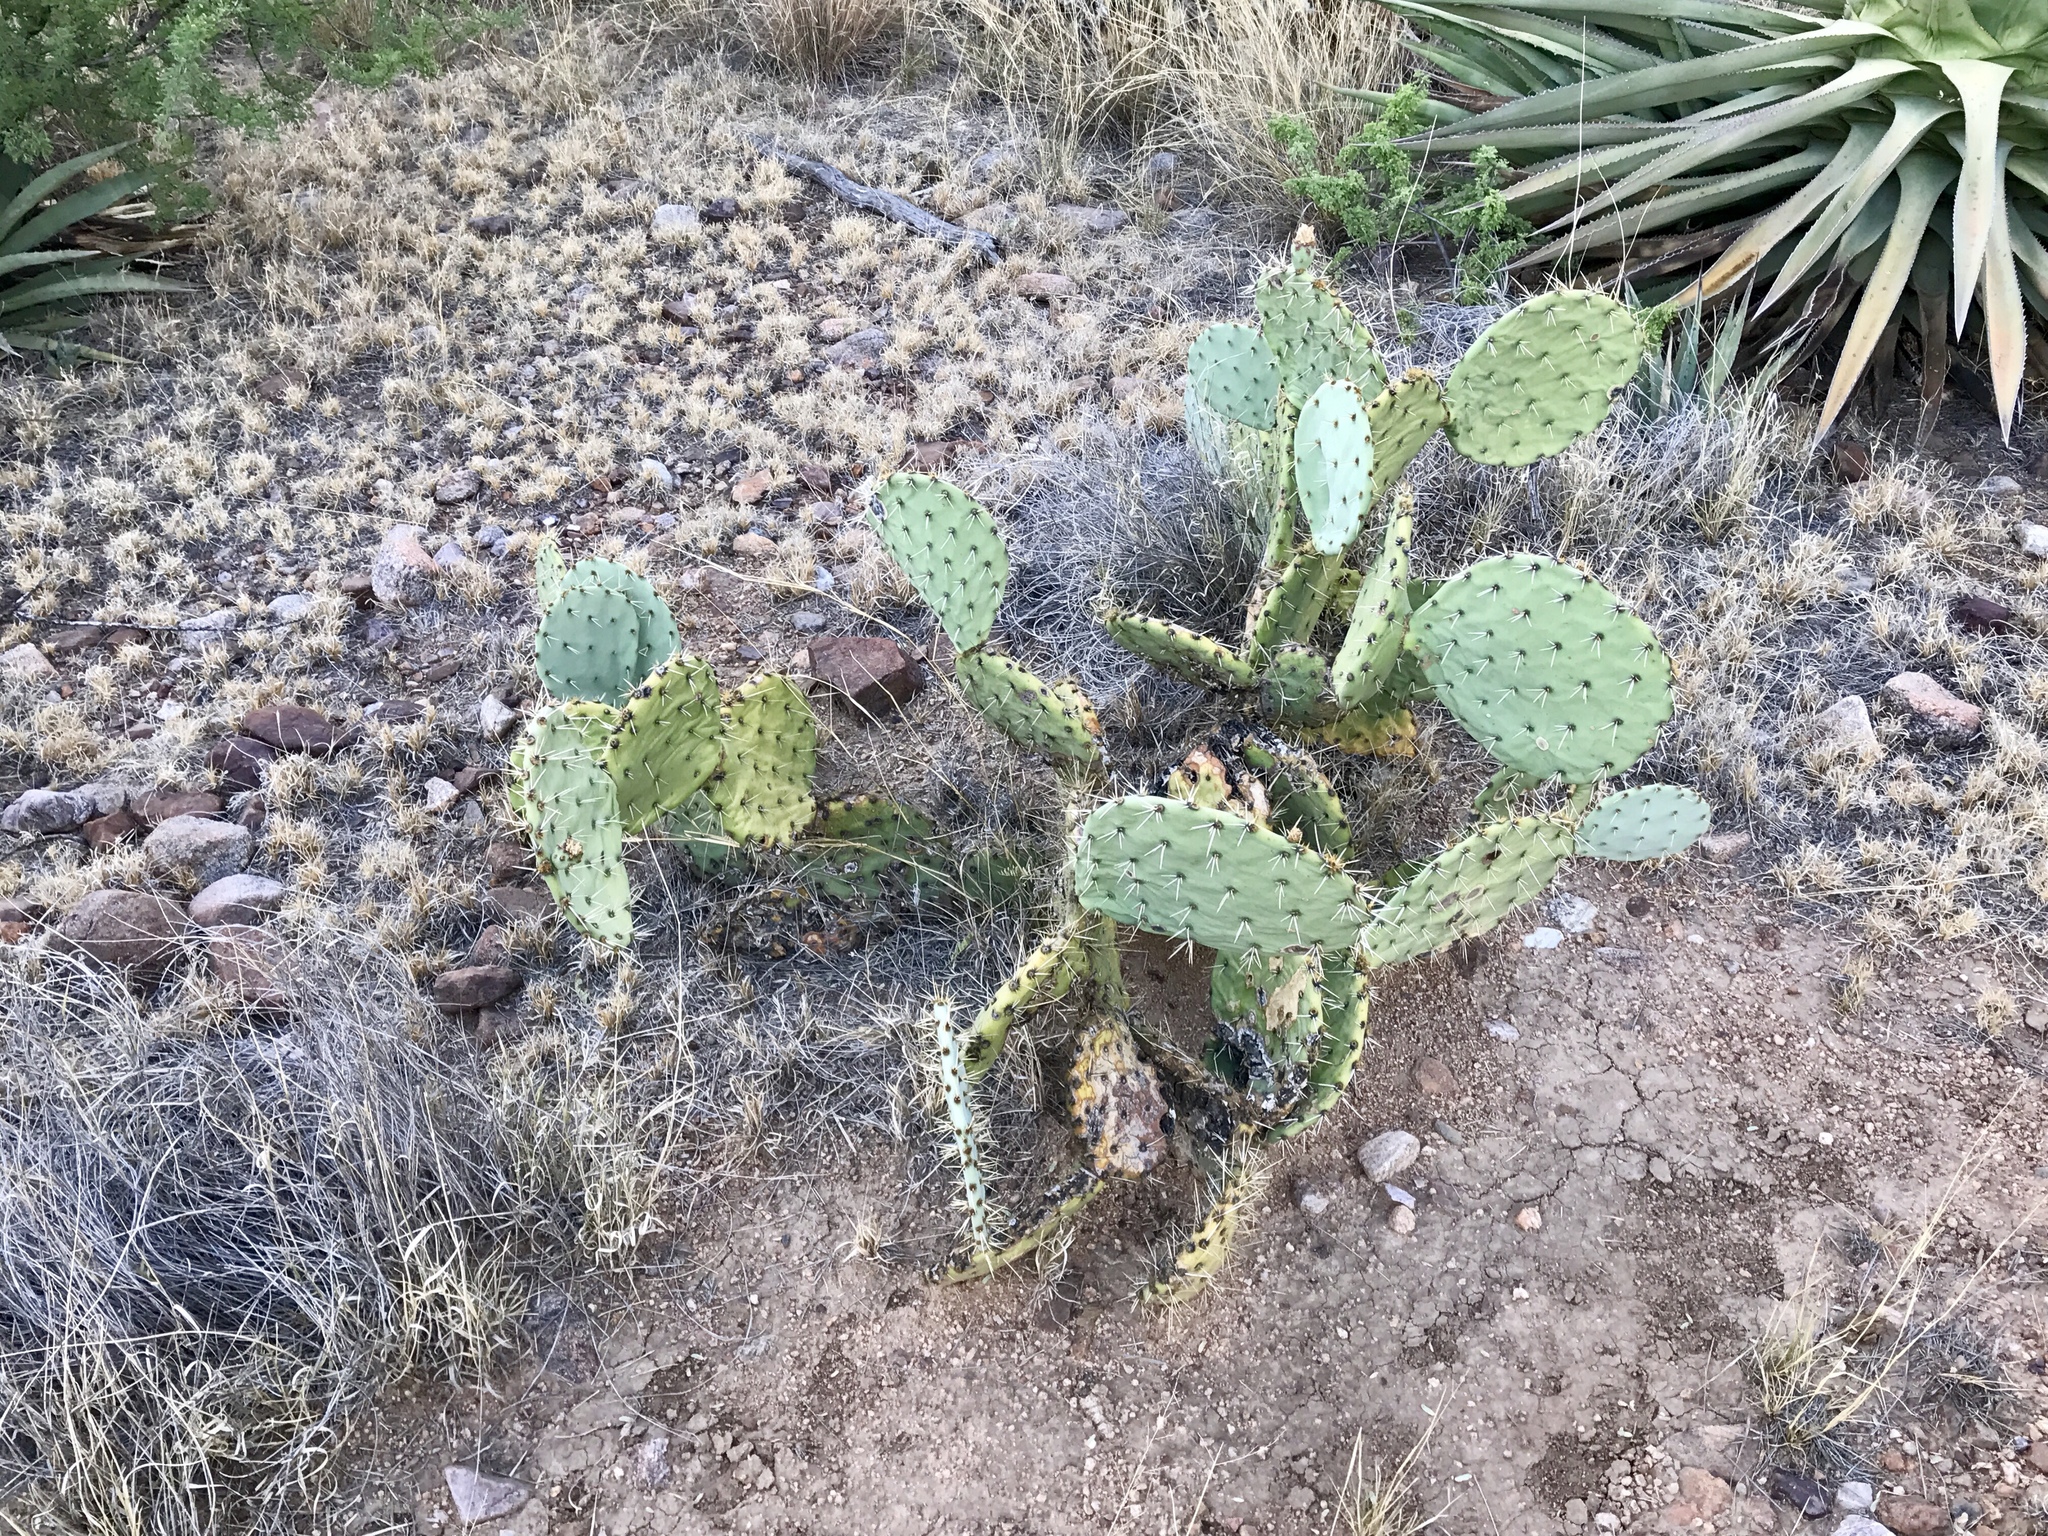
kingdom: Plantae
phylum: Tracheophyta
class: Magnoliopsida
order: Caryophyllales
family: Cactaceae
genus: Opuntia
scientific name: Opuntia engelmannii
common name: Cactus-apple
